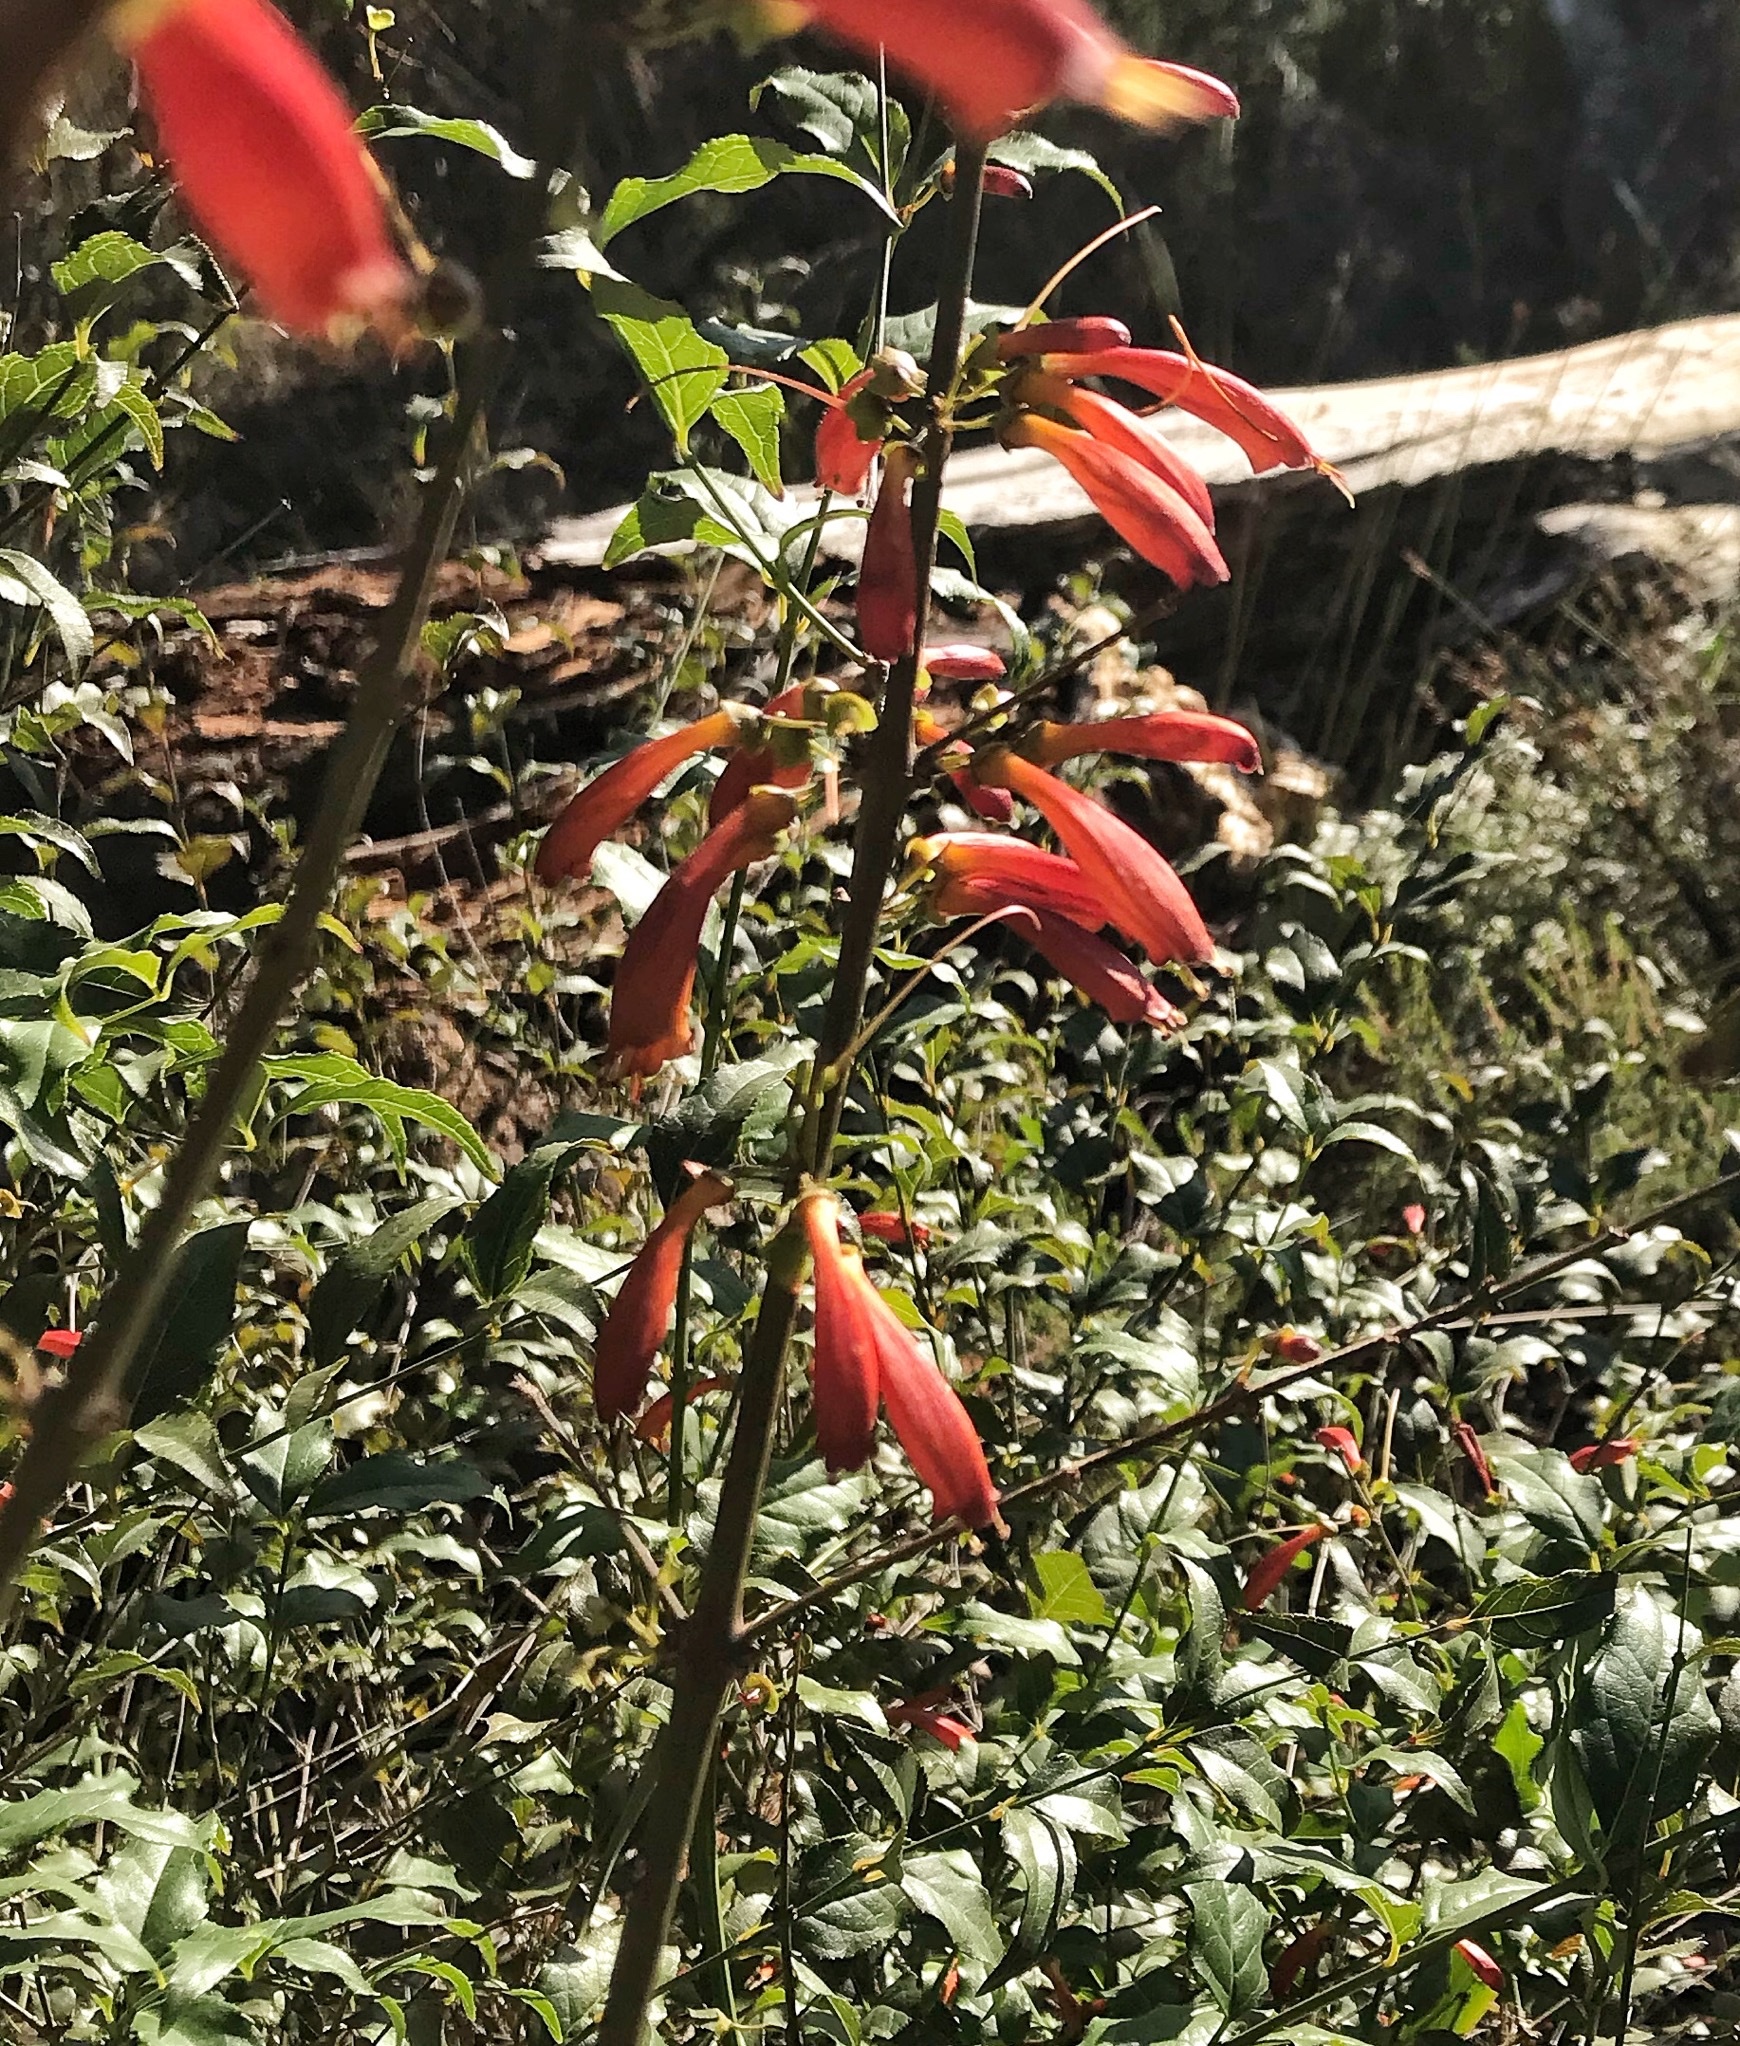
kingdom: Plantae
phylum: Tracheophyta
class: Magnoliopsida
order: Lamiales
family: Stilbaceae
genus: Halleria
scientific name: Halleria lucida
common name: Tree fuschia
